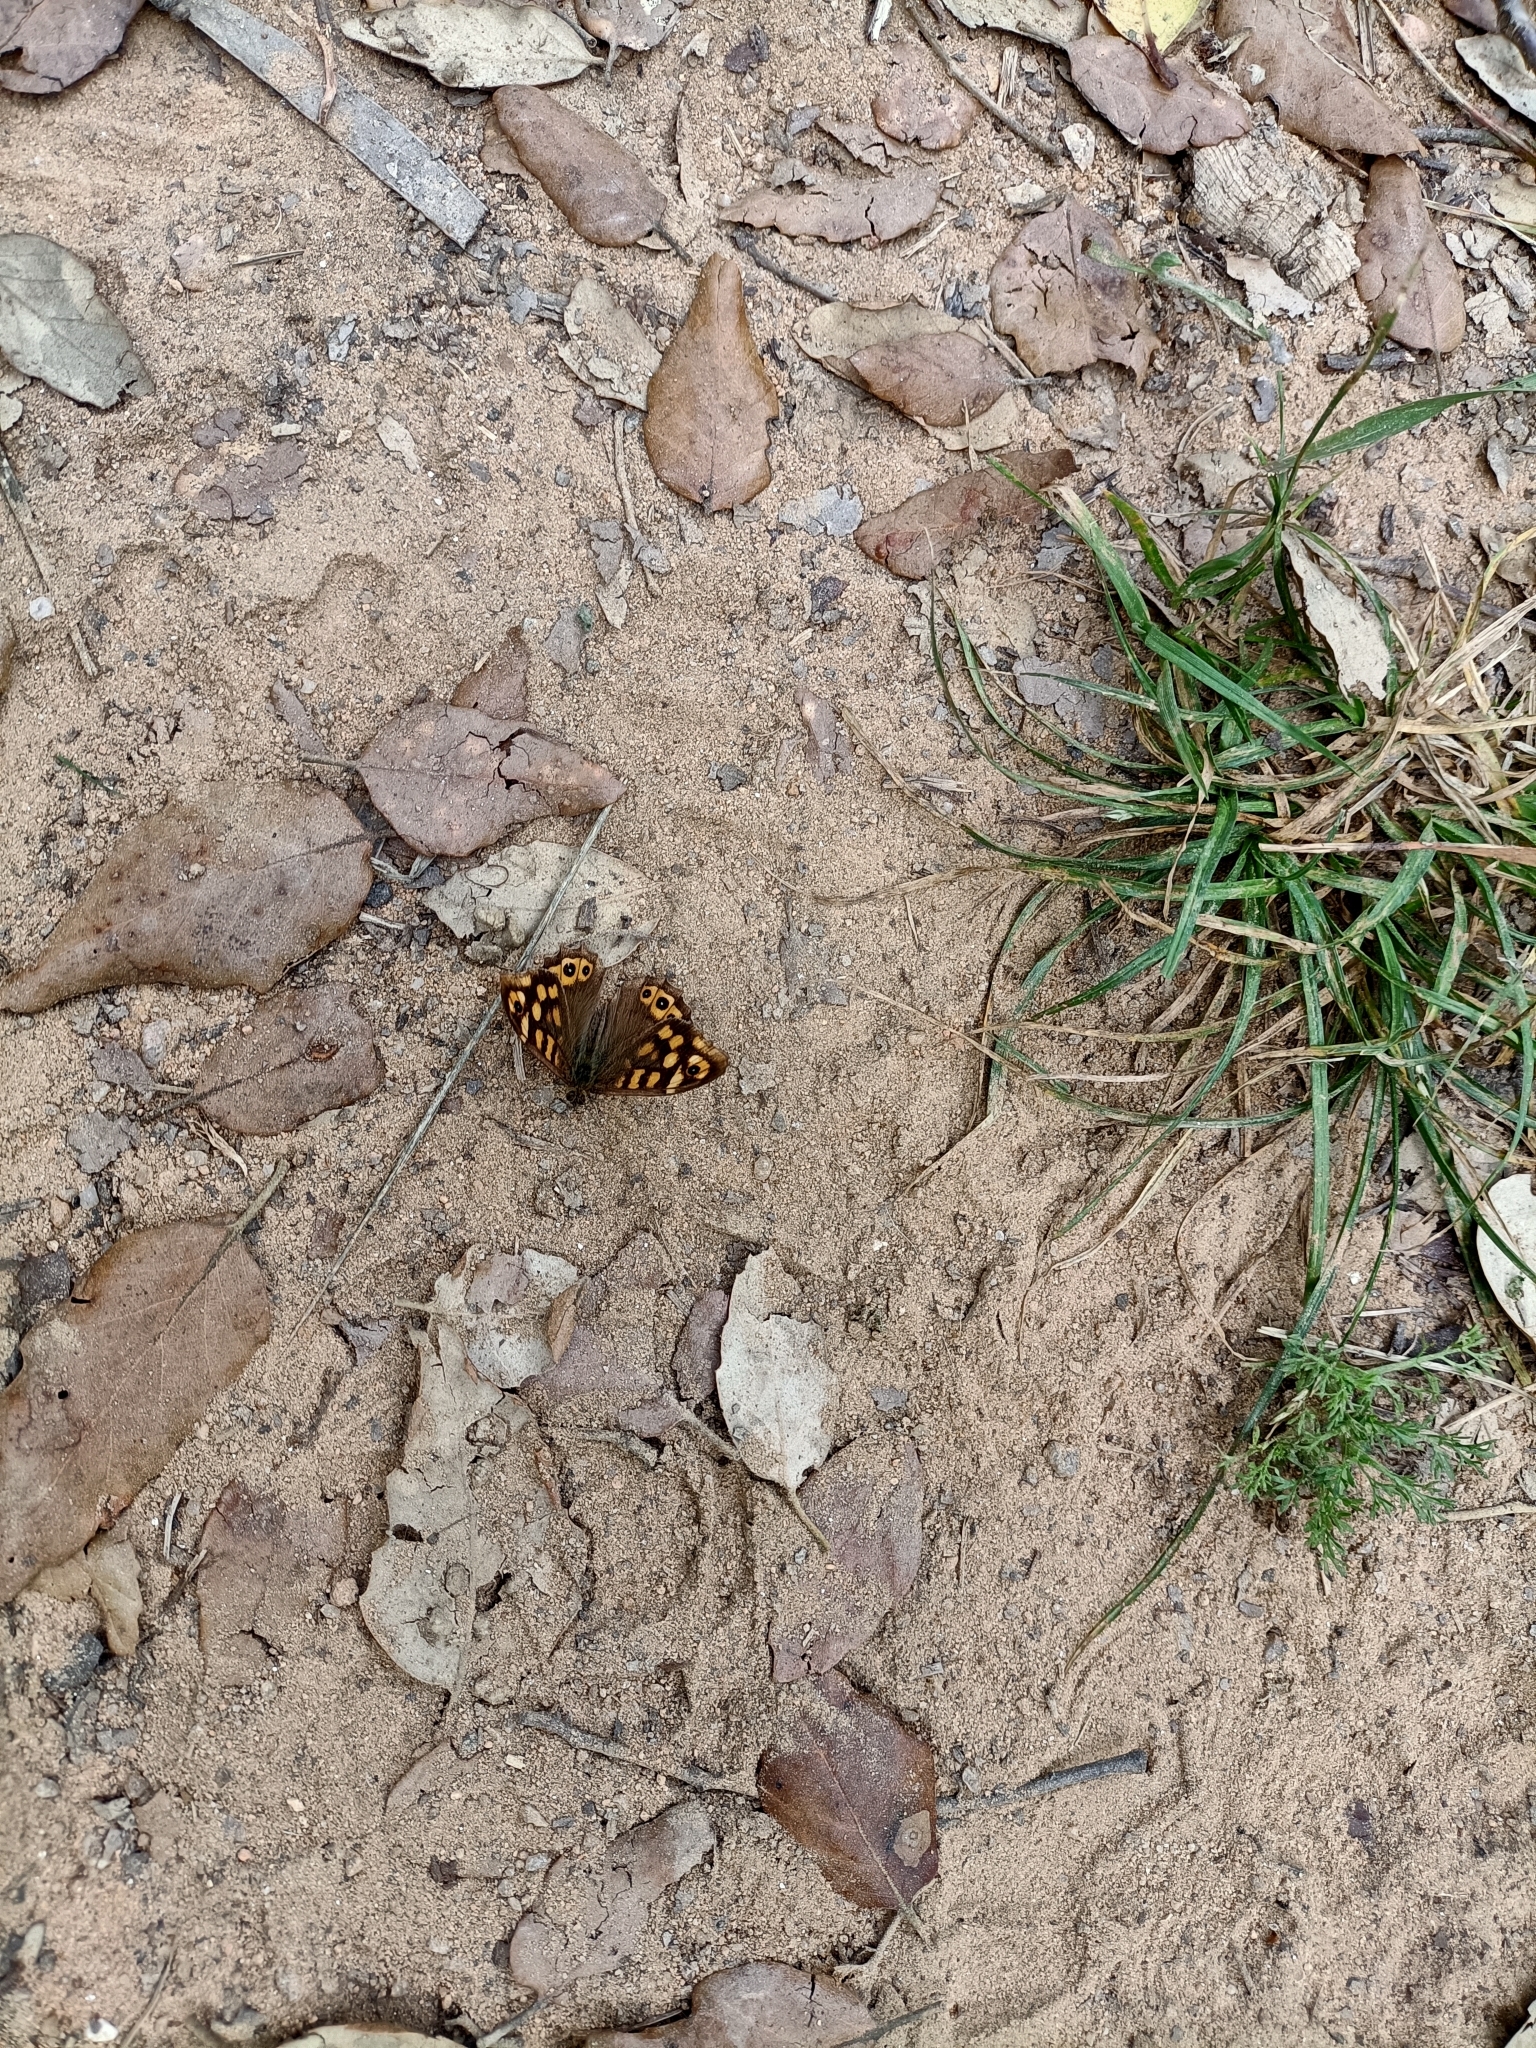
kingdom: Animalia
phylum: Arthropoda
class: Insecta
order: Lepidoptera
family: Nymphalidae
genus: Pararge
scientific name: Pararge aegeria
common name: Speckled wood
